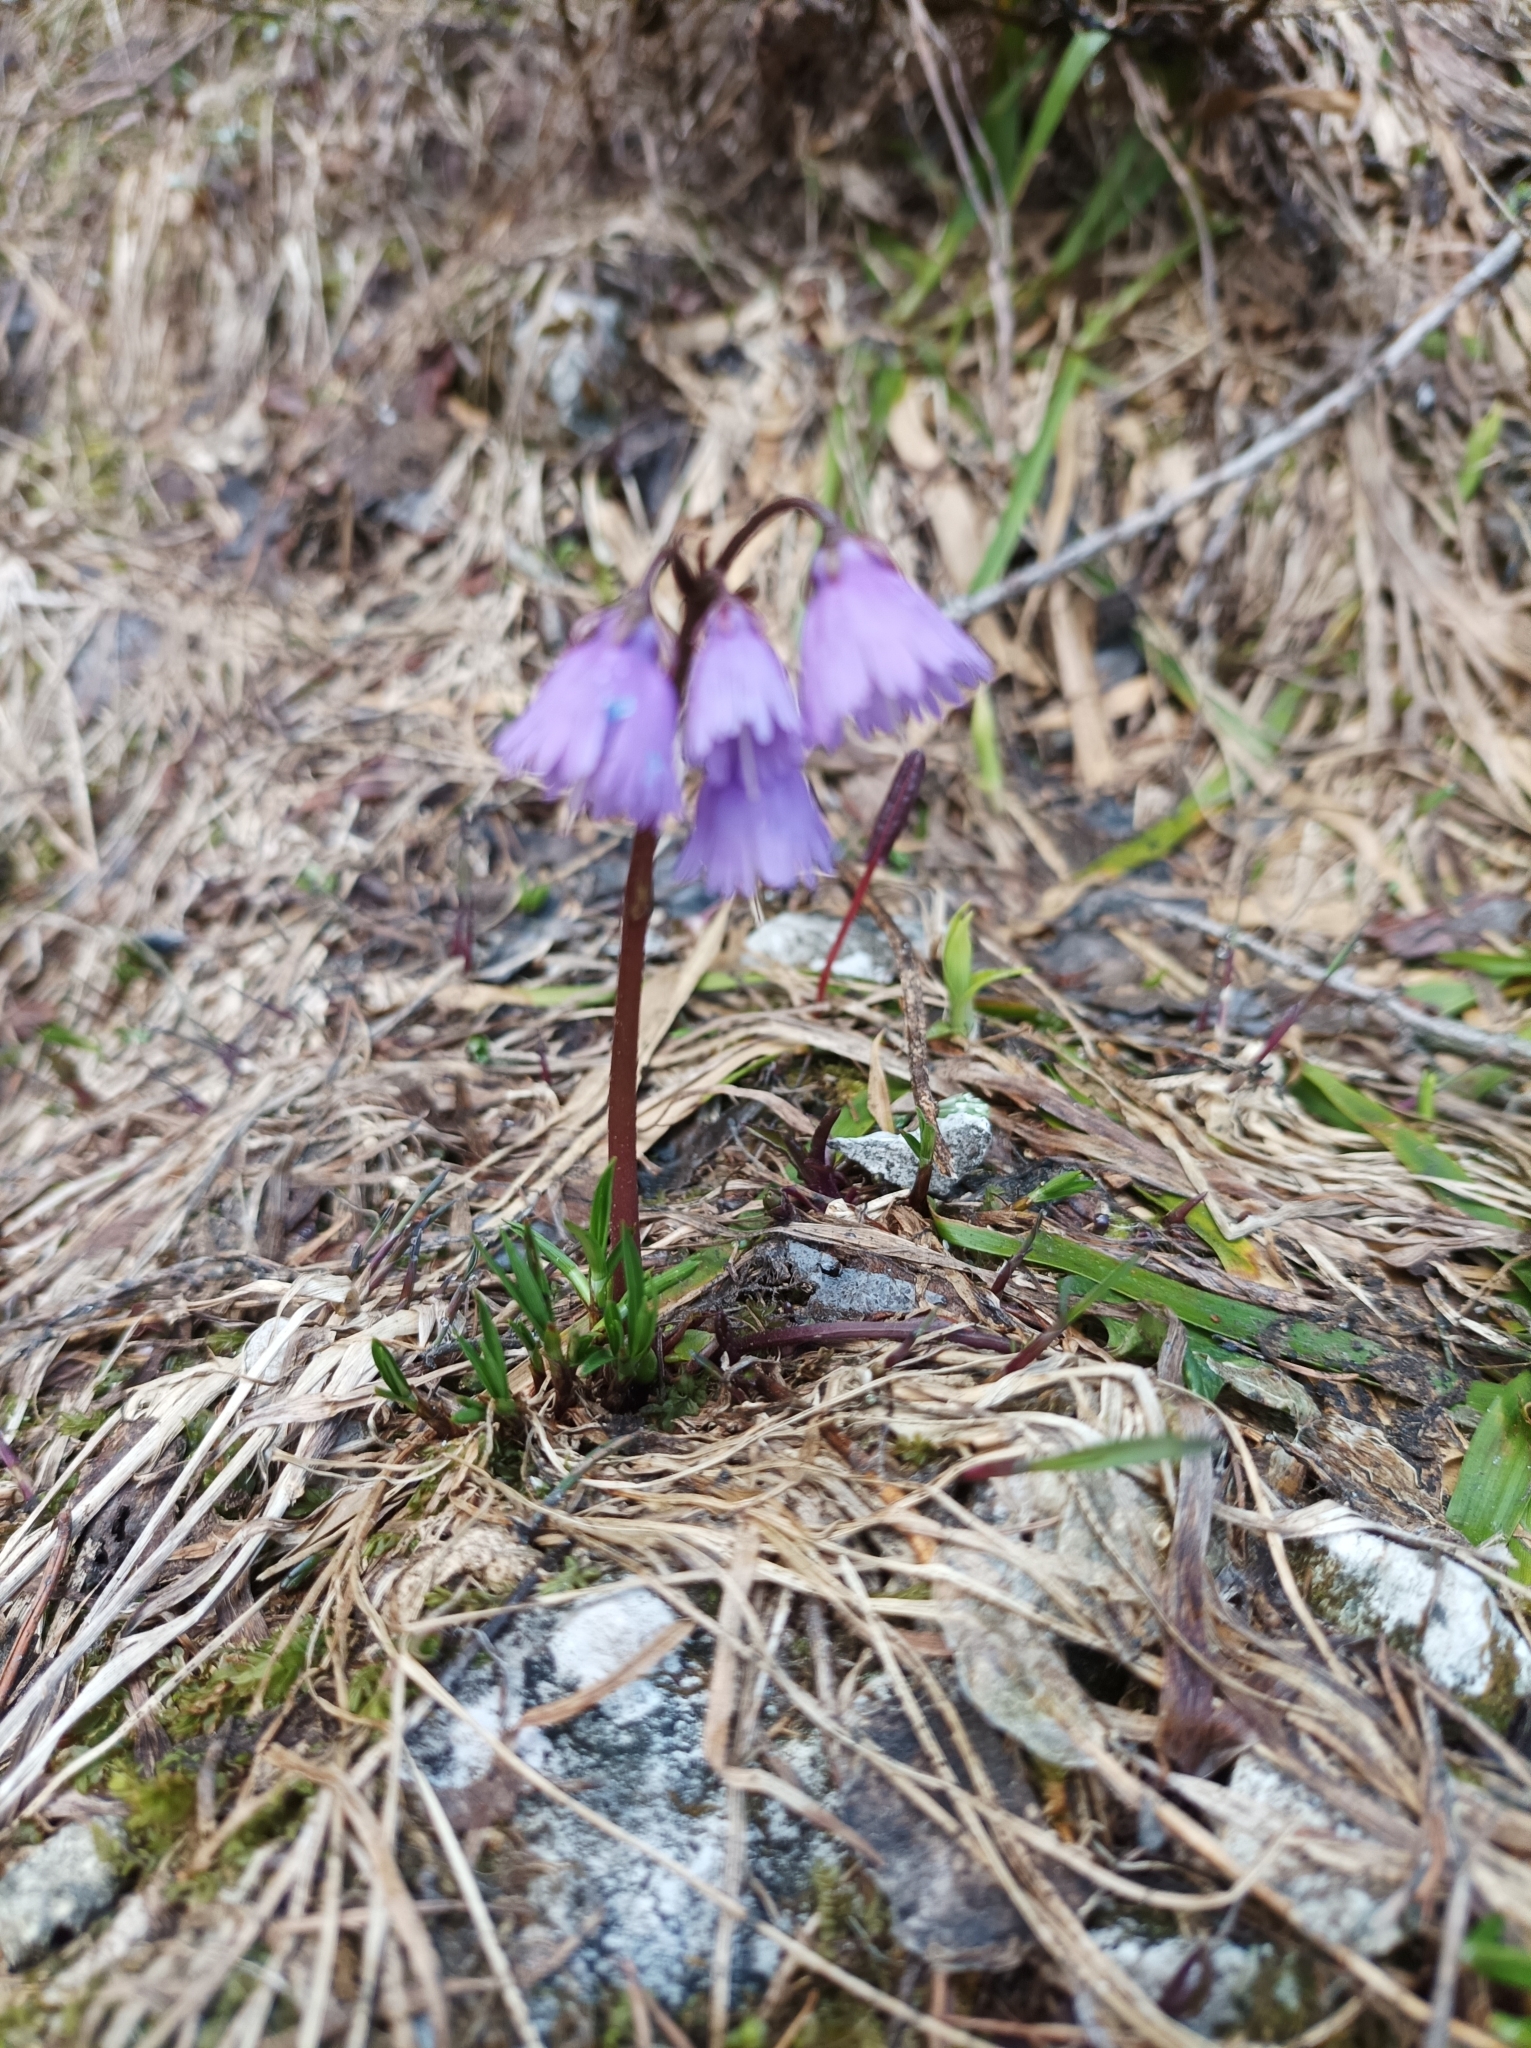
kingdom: Plantae
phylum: Tracheophyta
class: Magnoliopsida
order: Ericales
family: Primulaceae
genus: Soldanella
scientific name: Soldanella alpina
